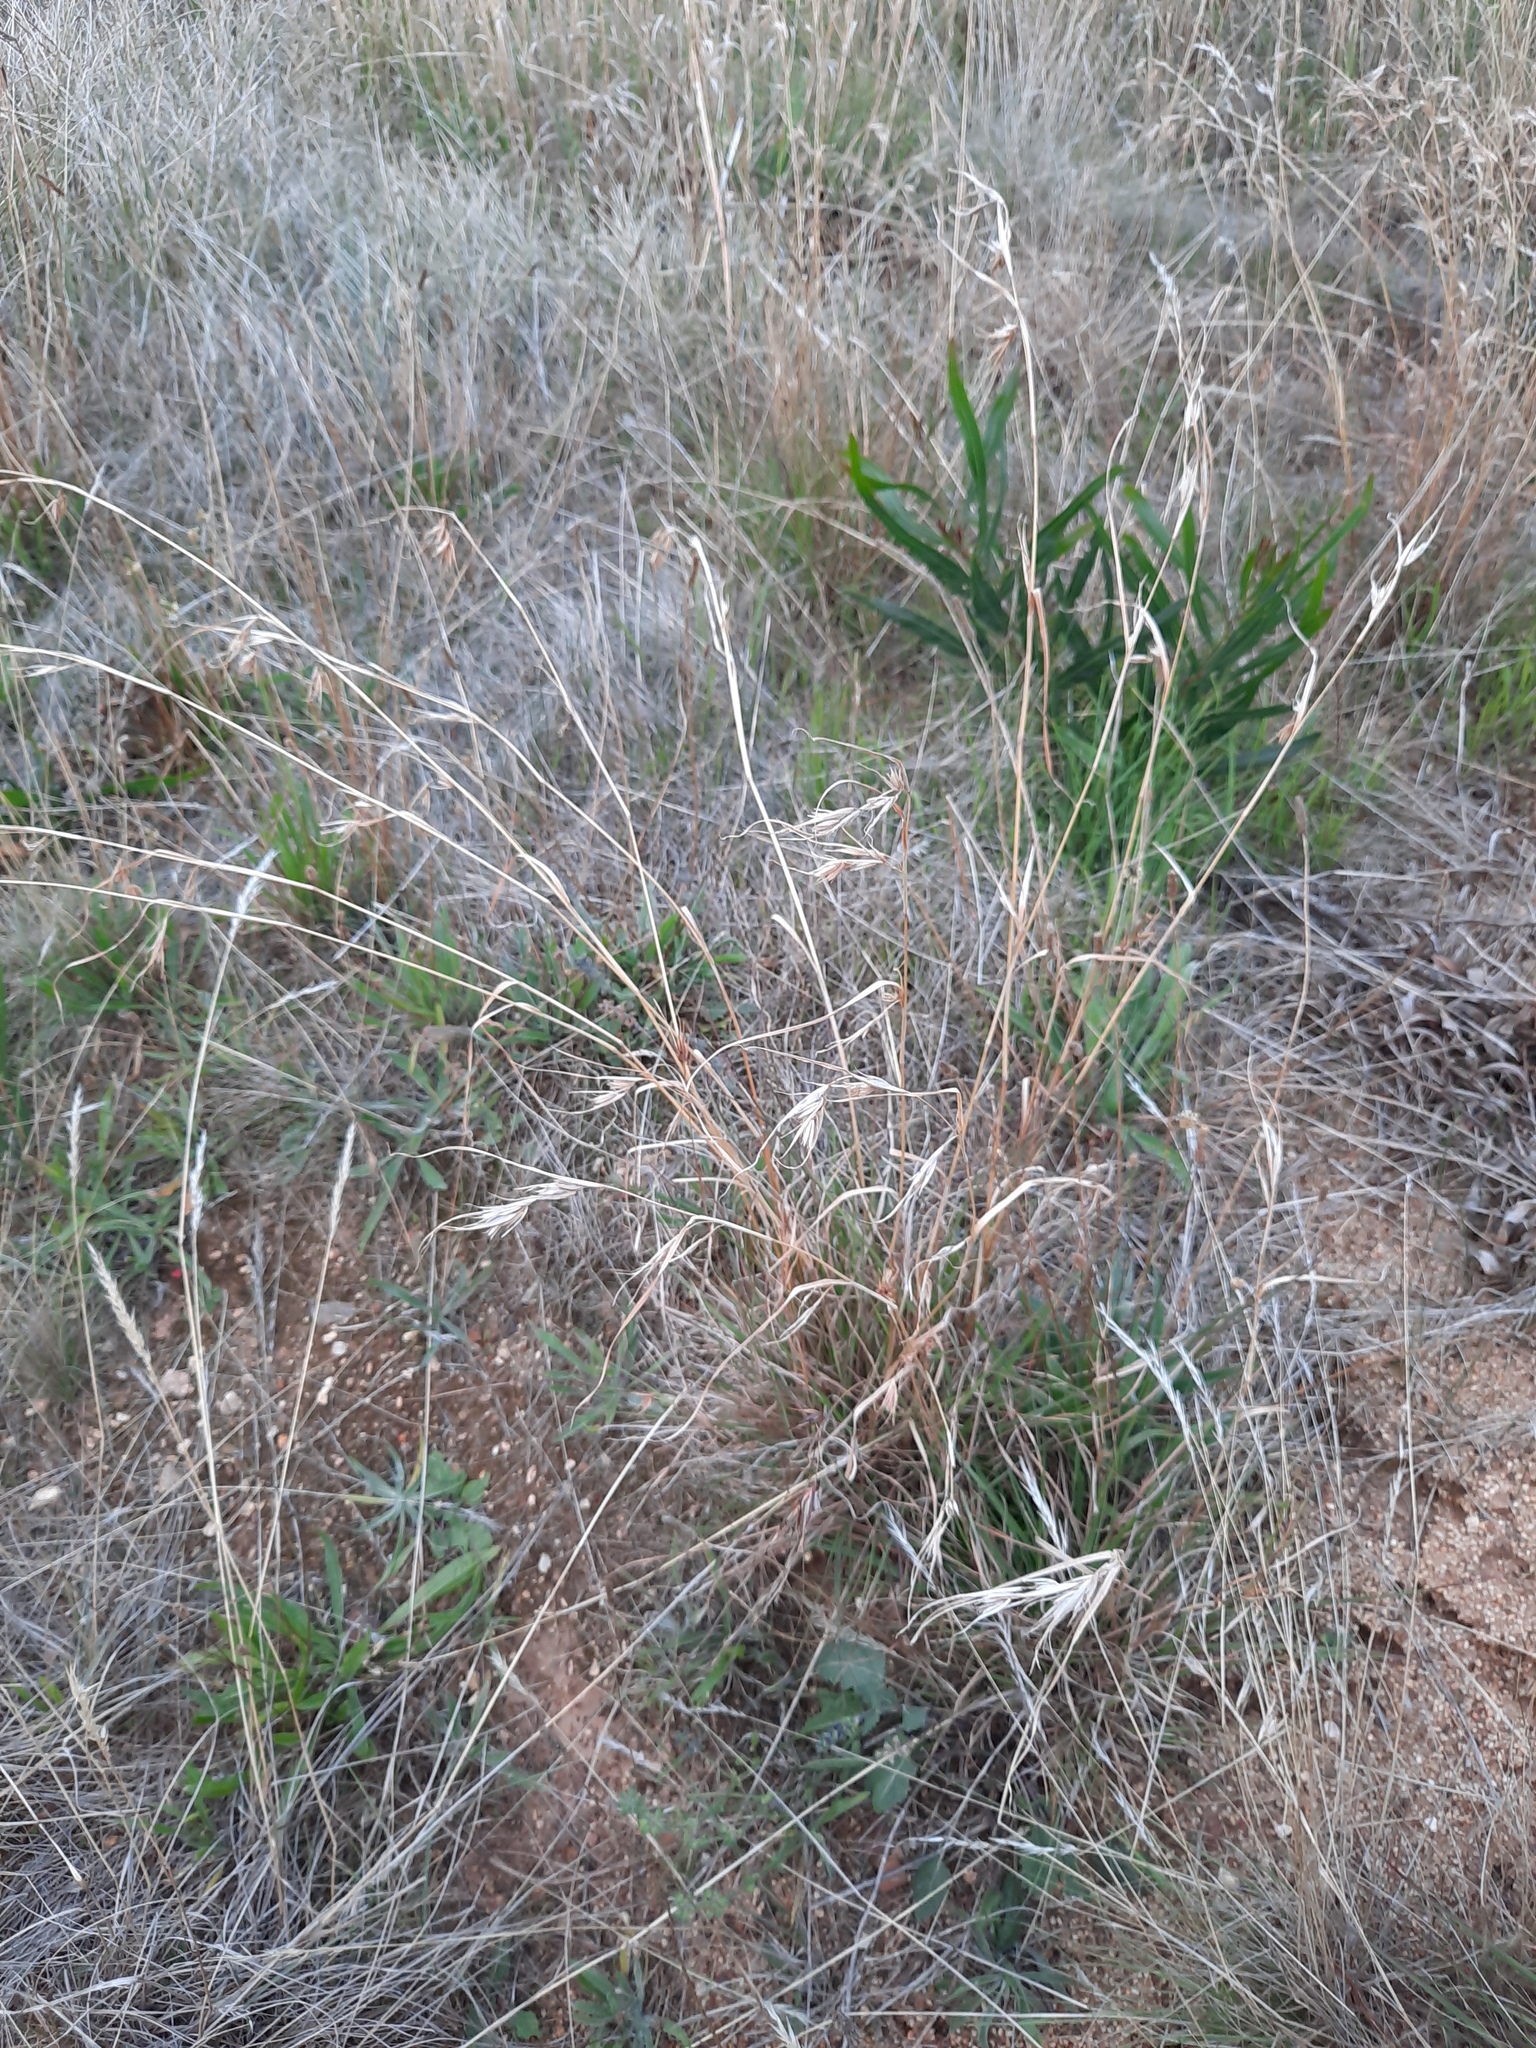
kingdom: Plantae
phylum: Tracheophyta
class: Liliopsida
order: Poales
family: Poaceae
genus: Themeda
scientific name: Themeda triandra
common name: Kangaroo grass
